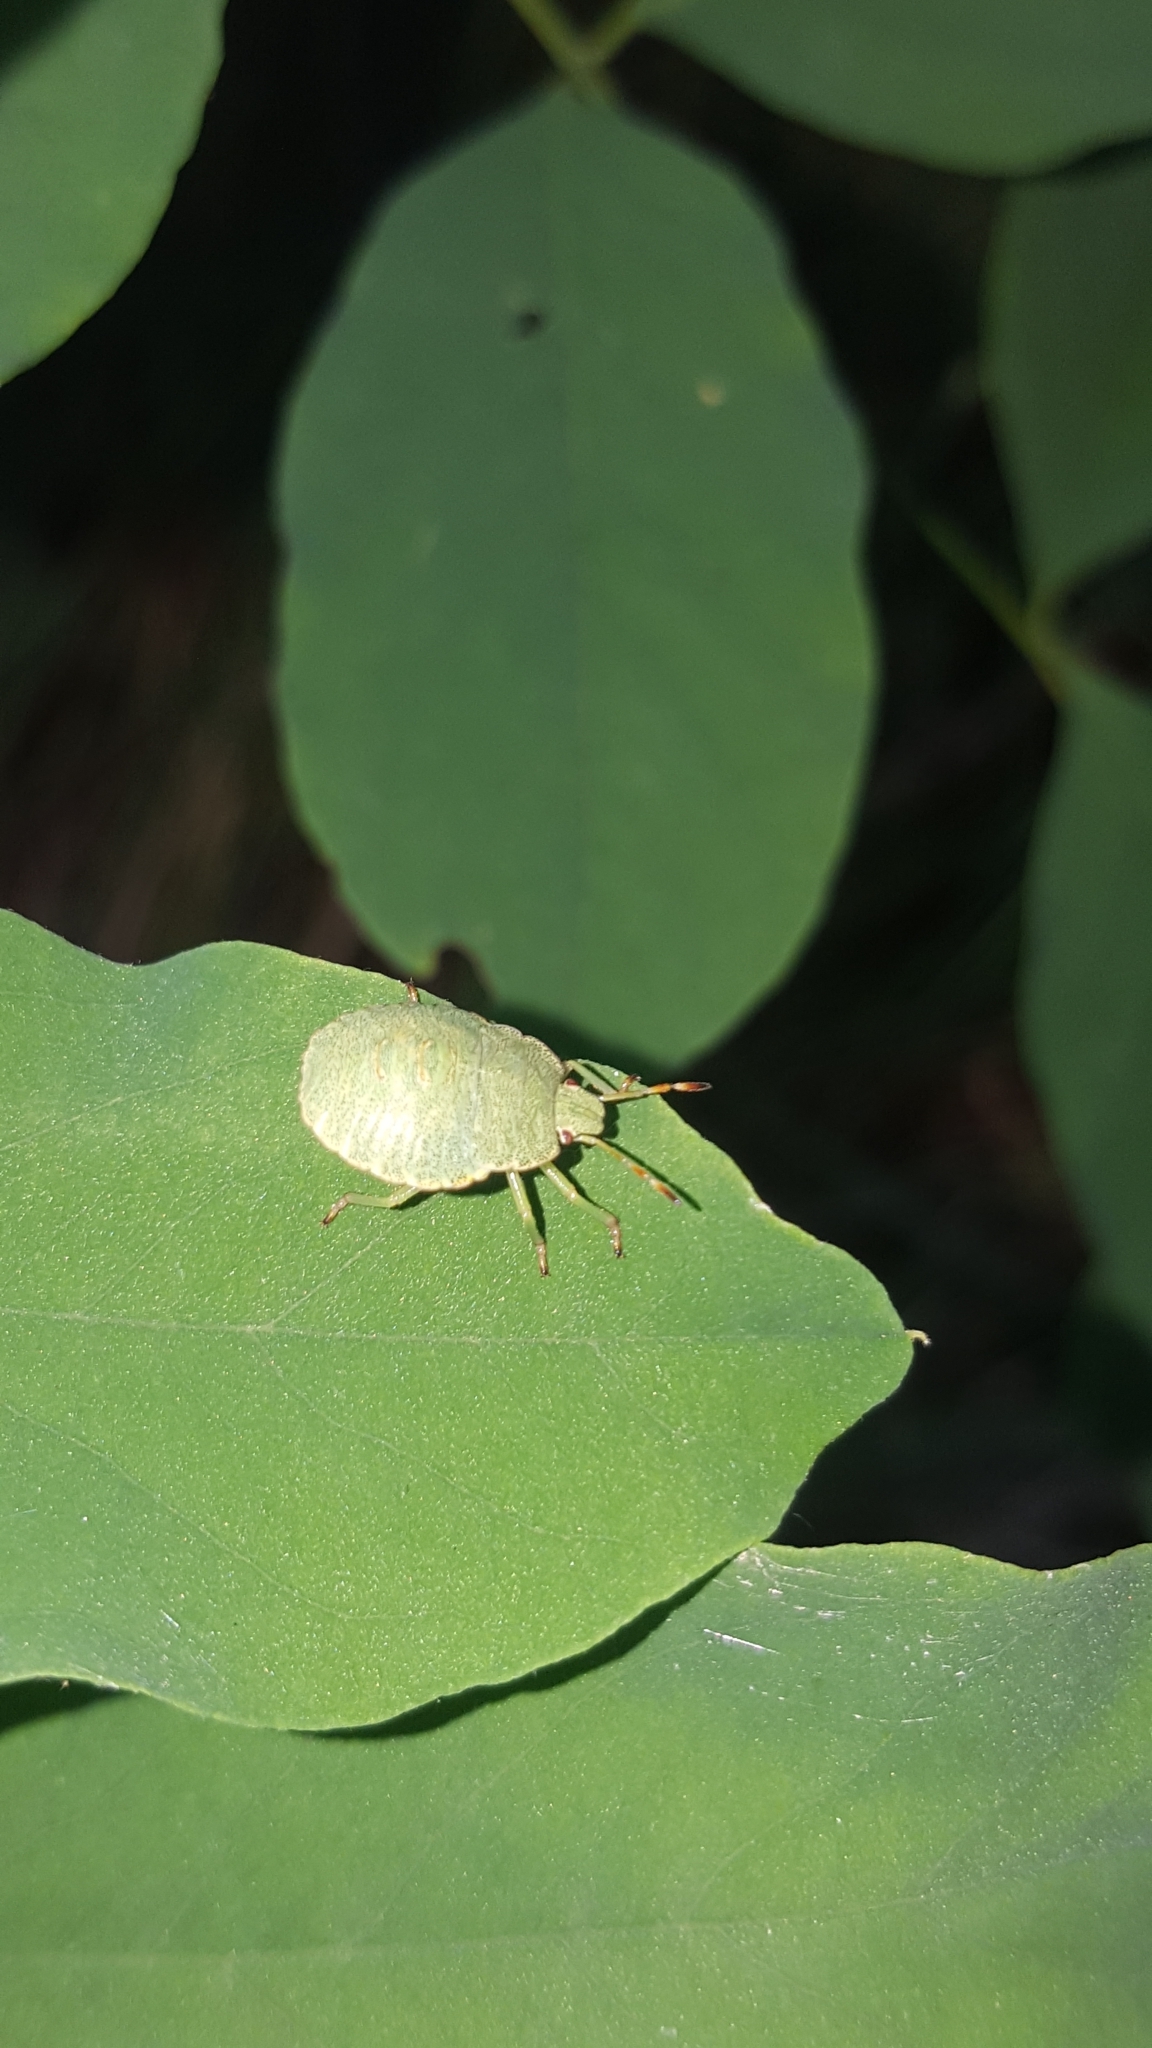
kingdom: Animalia
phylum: Arthropoda
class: Insecta
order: Hemiptera
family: Pentatomidae
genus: Palomena
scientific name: Palomena prasina
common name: Green shieldbug
